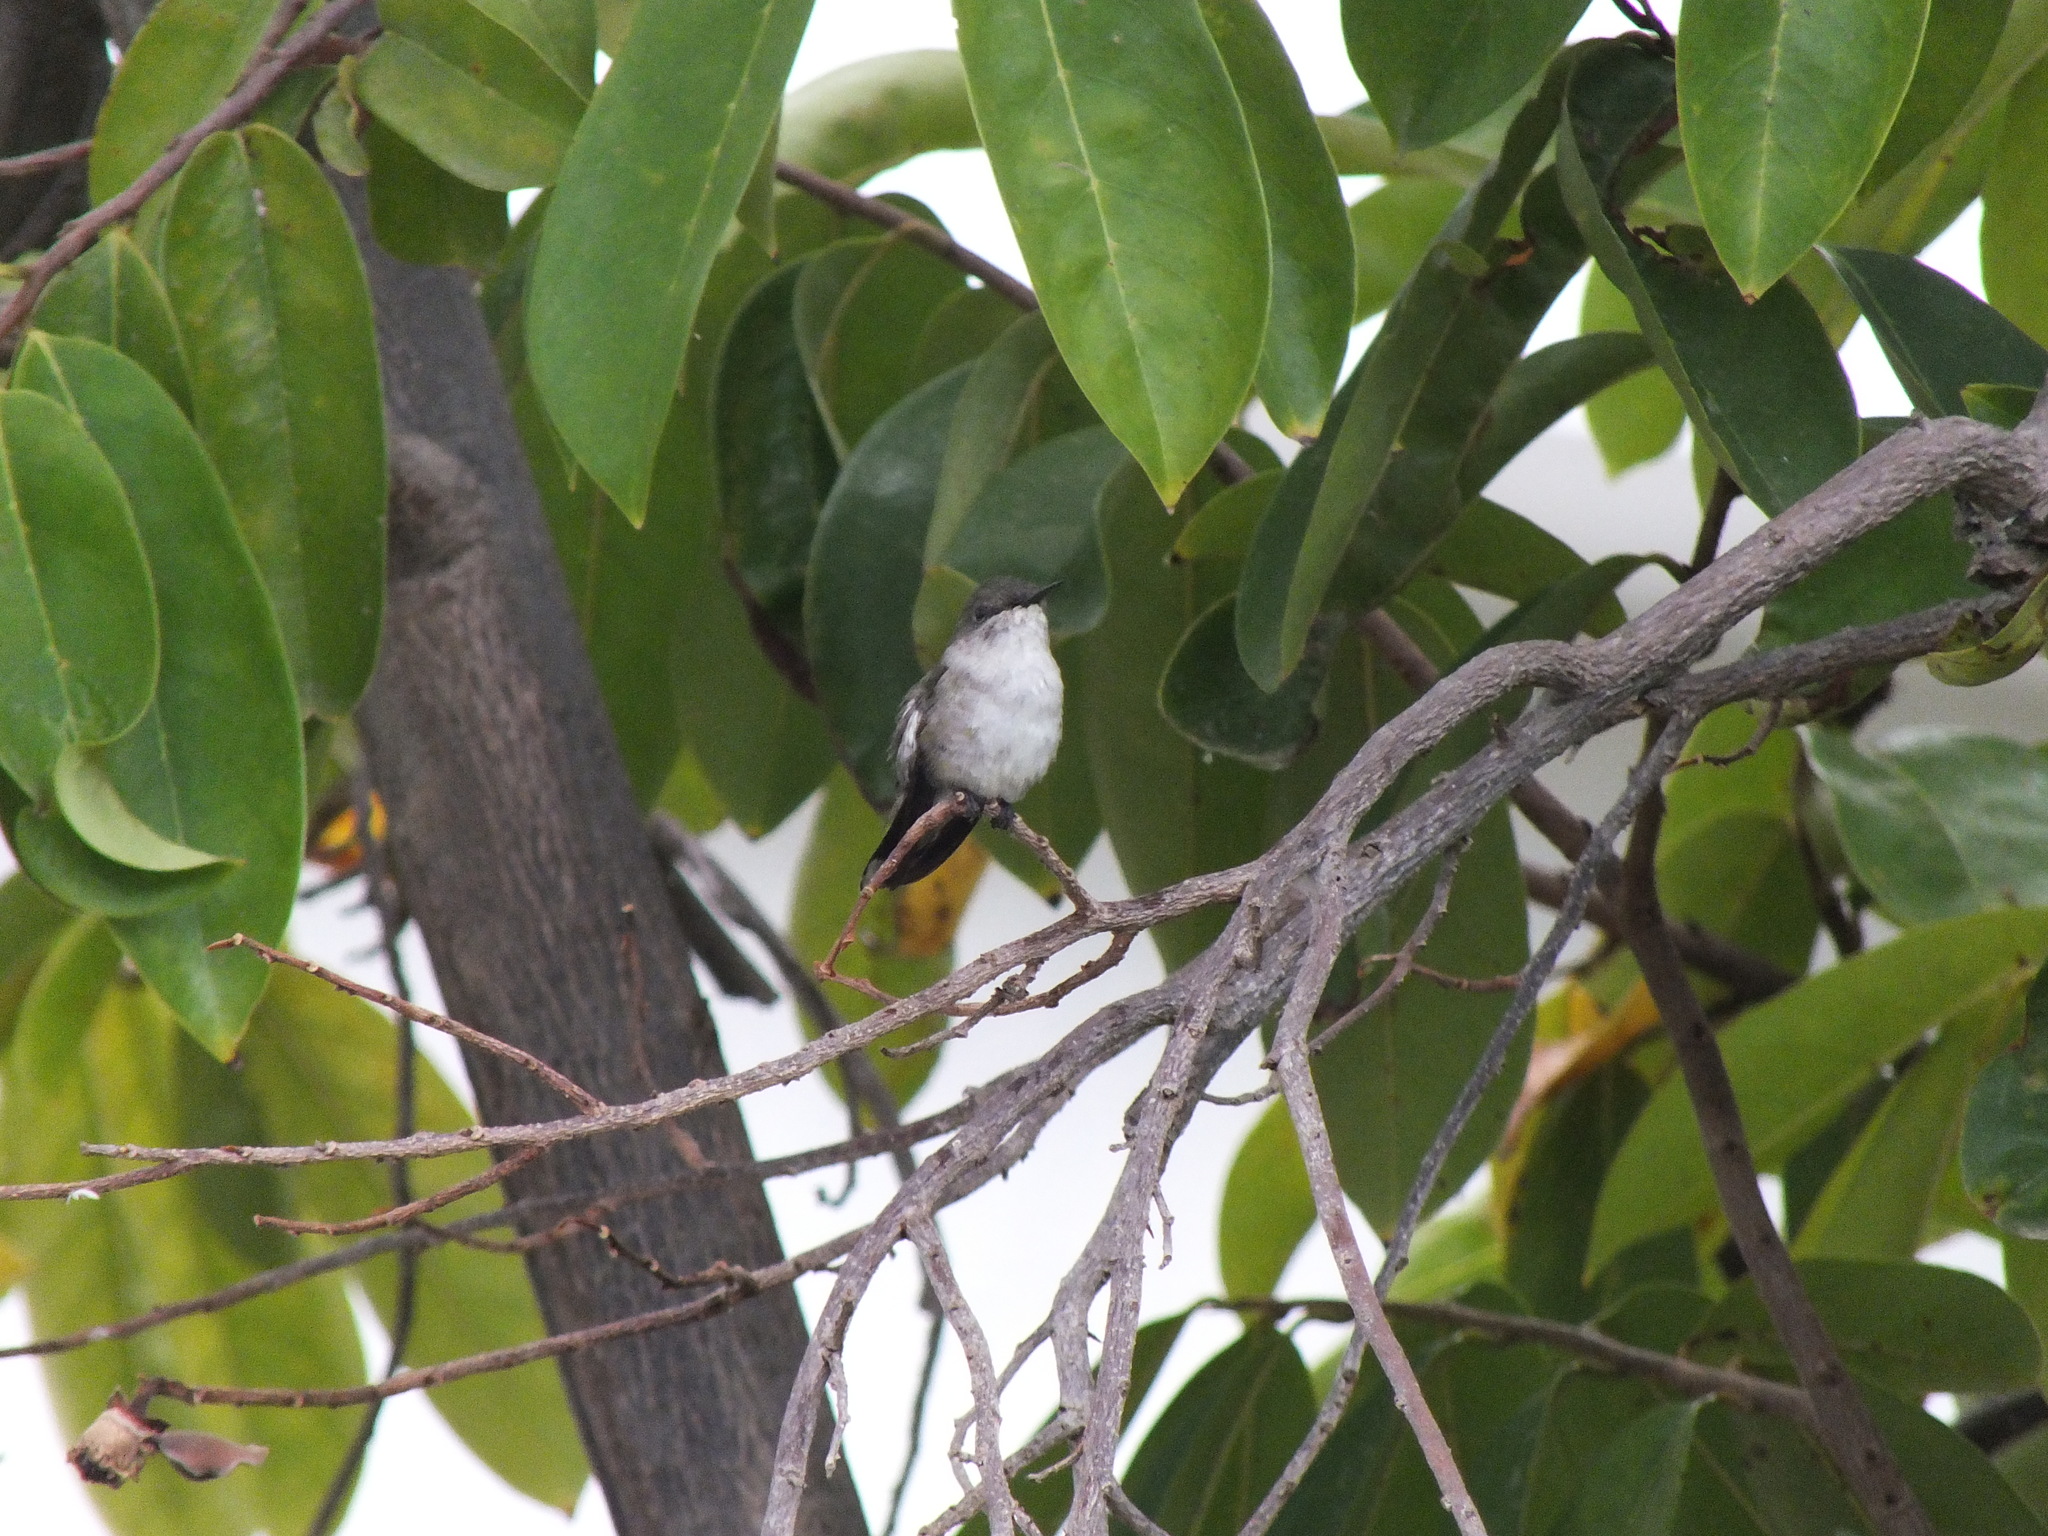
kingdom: Animalia
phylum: Chordata
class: Aves
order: Apodiformes
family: Trochilidae
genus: Mellisuga
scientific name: Mellisuga minima
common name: Vervain hummingbird
